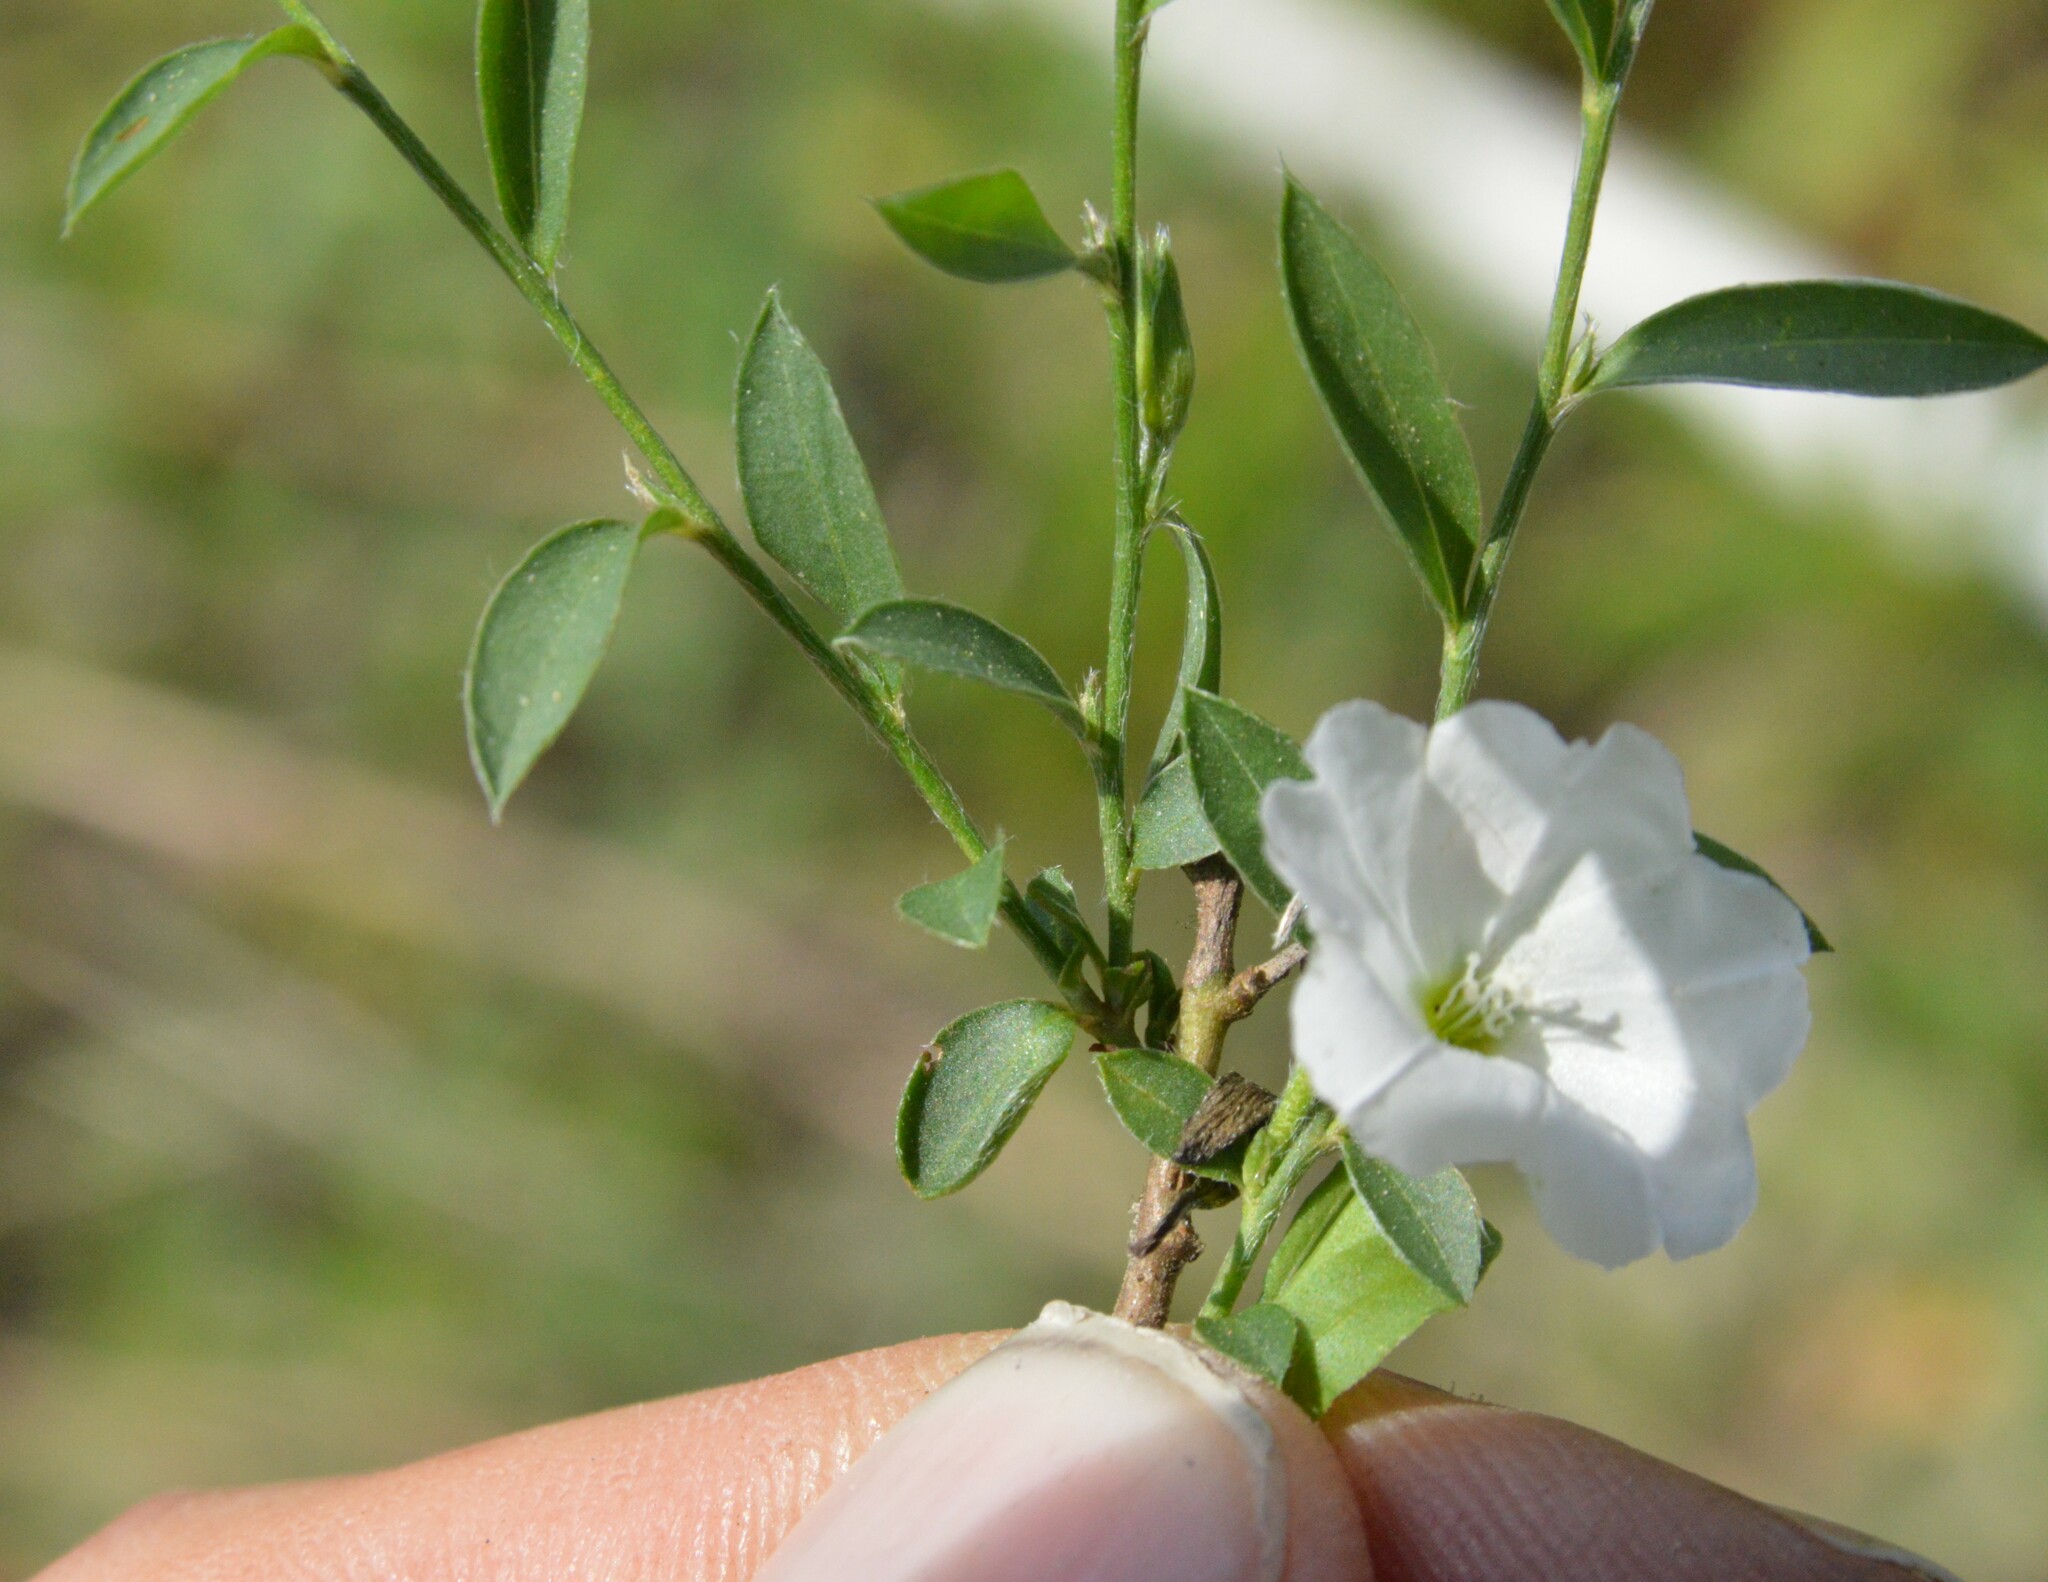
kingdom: Plantae
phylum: Tracheophyta
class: Magnoliopsida
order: Solanales
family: Convolvulaceae
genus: Evolvulus
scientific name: Evolvulus sericeus
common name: Blue dots
